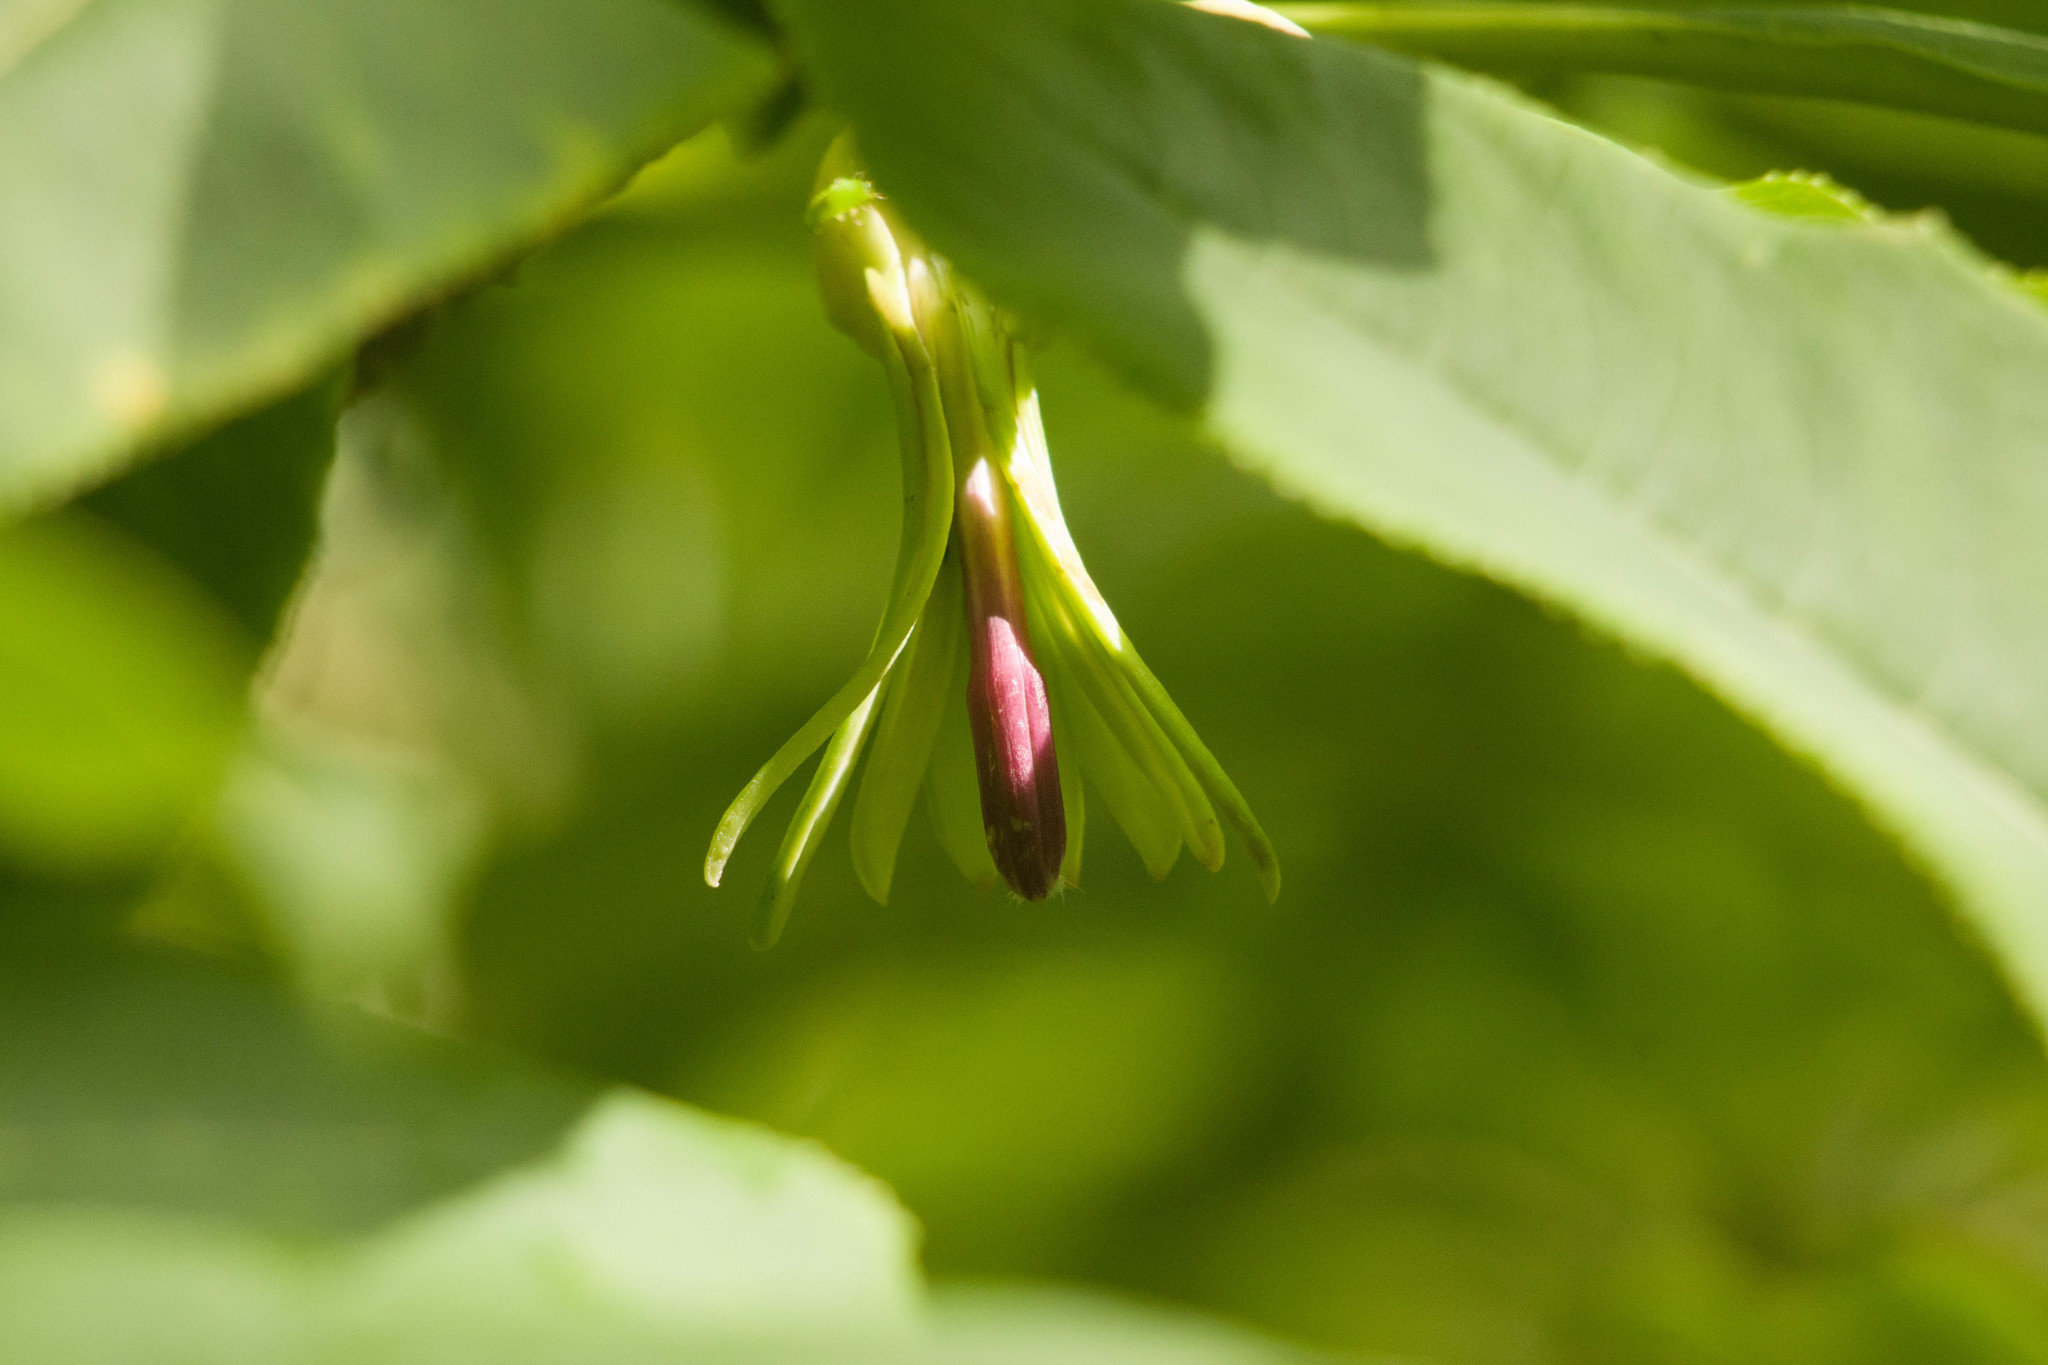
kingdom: Plantae
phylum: Tracheophyta
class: Magnoliopsida
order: Asterales
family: Campanulaceae
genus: Clermontia
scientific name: Clermontia kakeana
